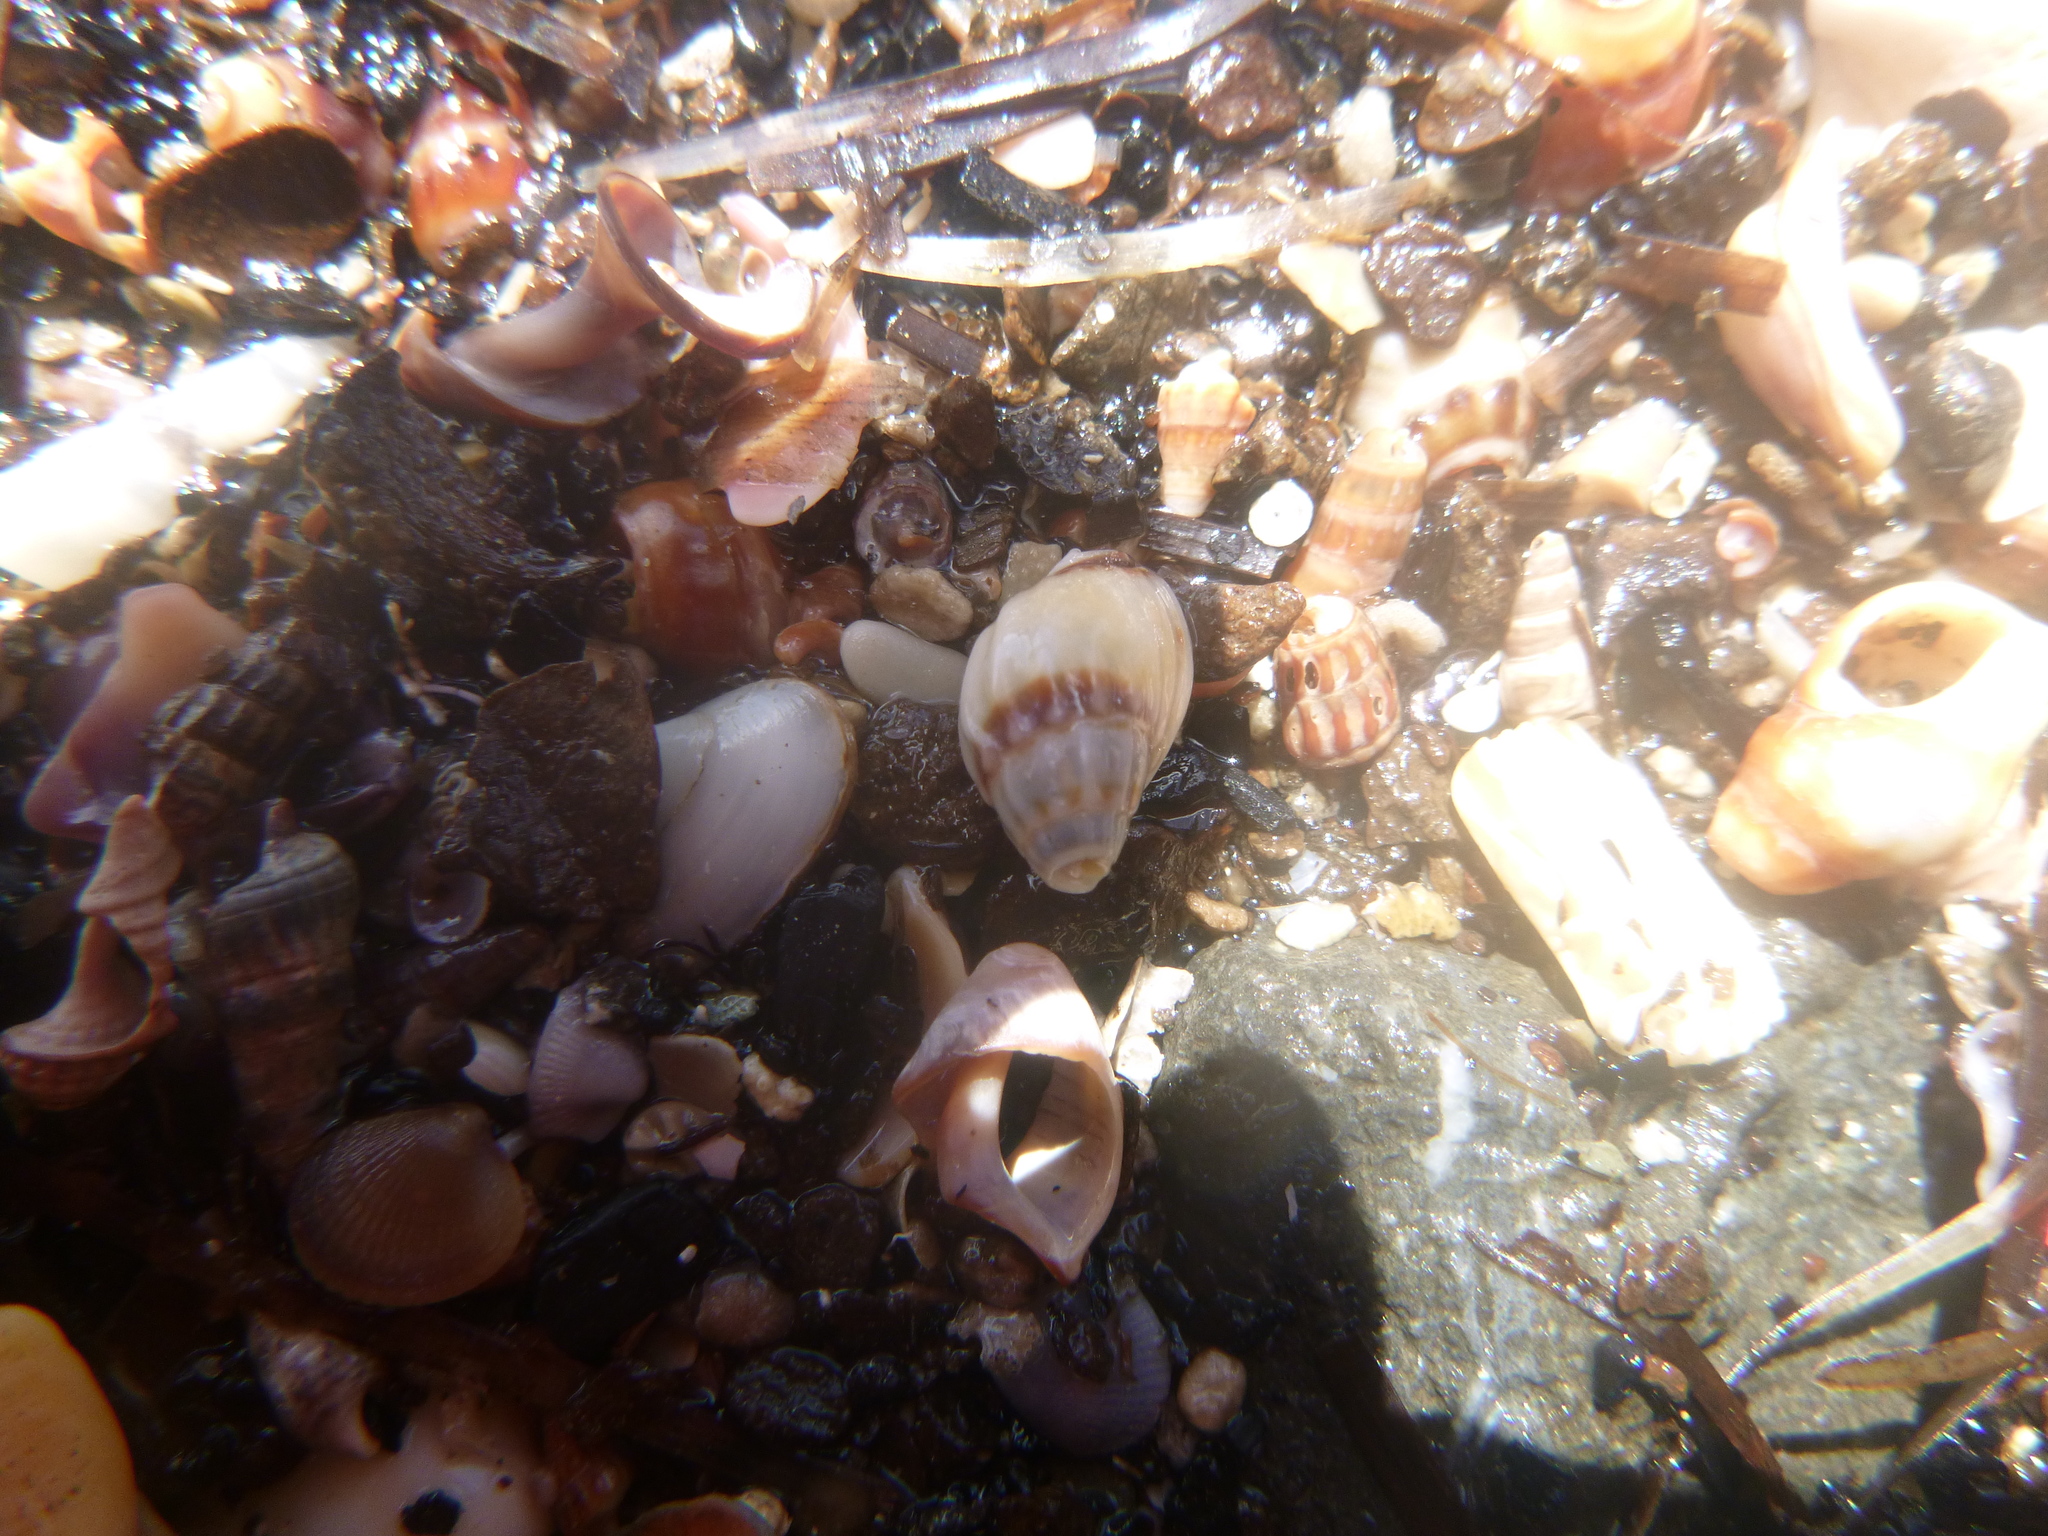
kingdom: Animalia
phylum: Mollusca
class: Gastropoda
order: Neogastropoda
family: Nassariidae
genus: Tritia
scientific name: Tritia burchardi
